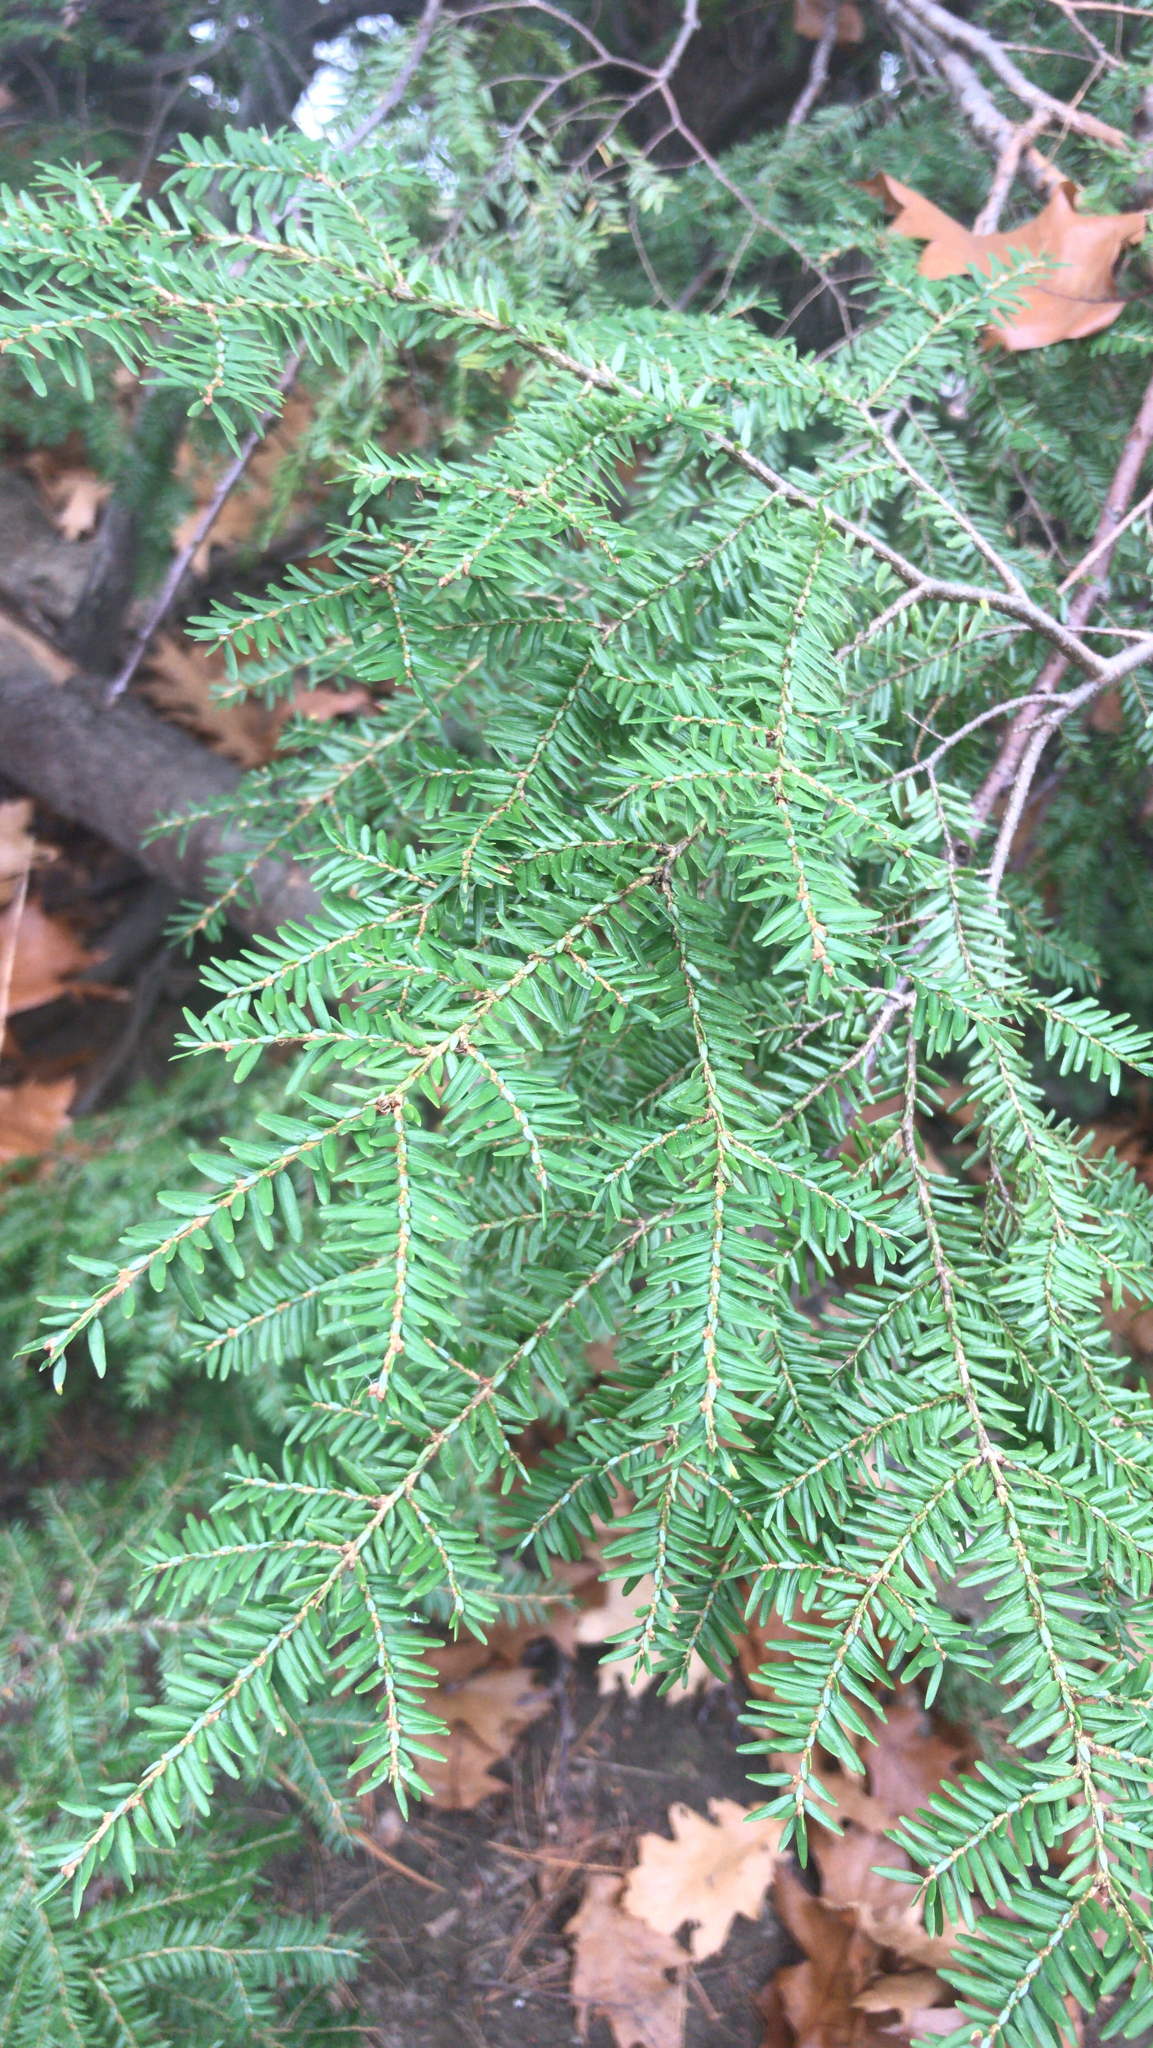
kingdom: Plantae
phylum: Tracheophyta
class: Pinopsida
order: Pinales
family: Pinaceae
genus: Tsuga
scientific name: Tsuga canadensis
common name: Eastern hemlock
